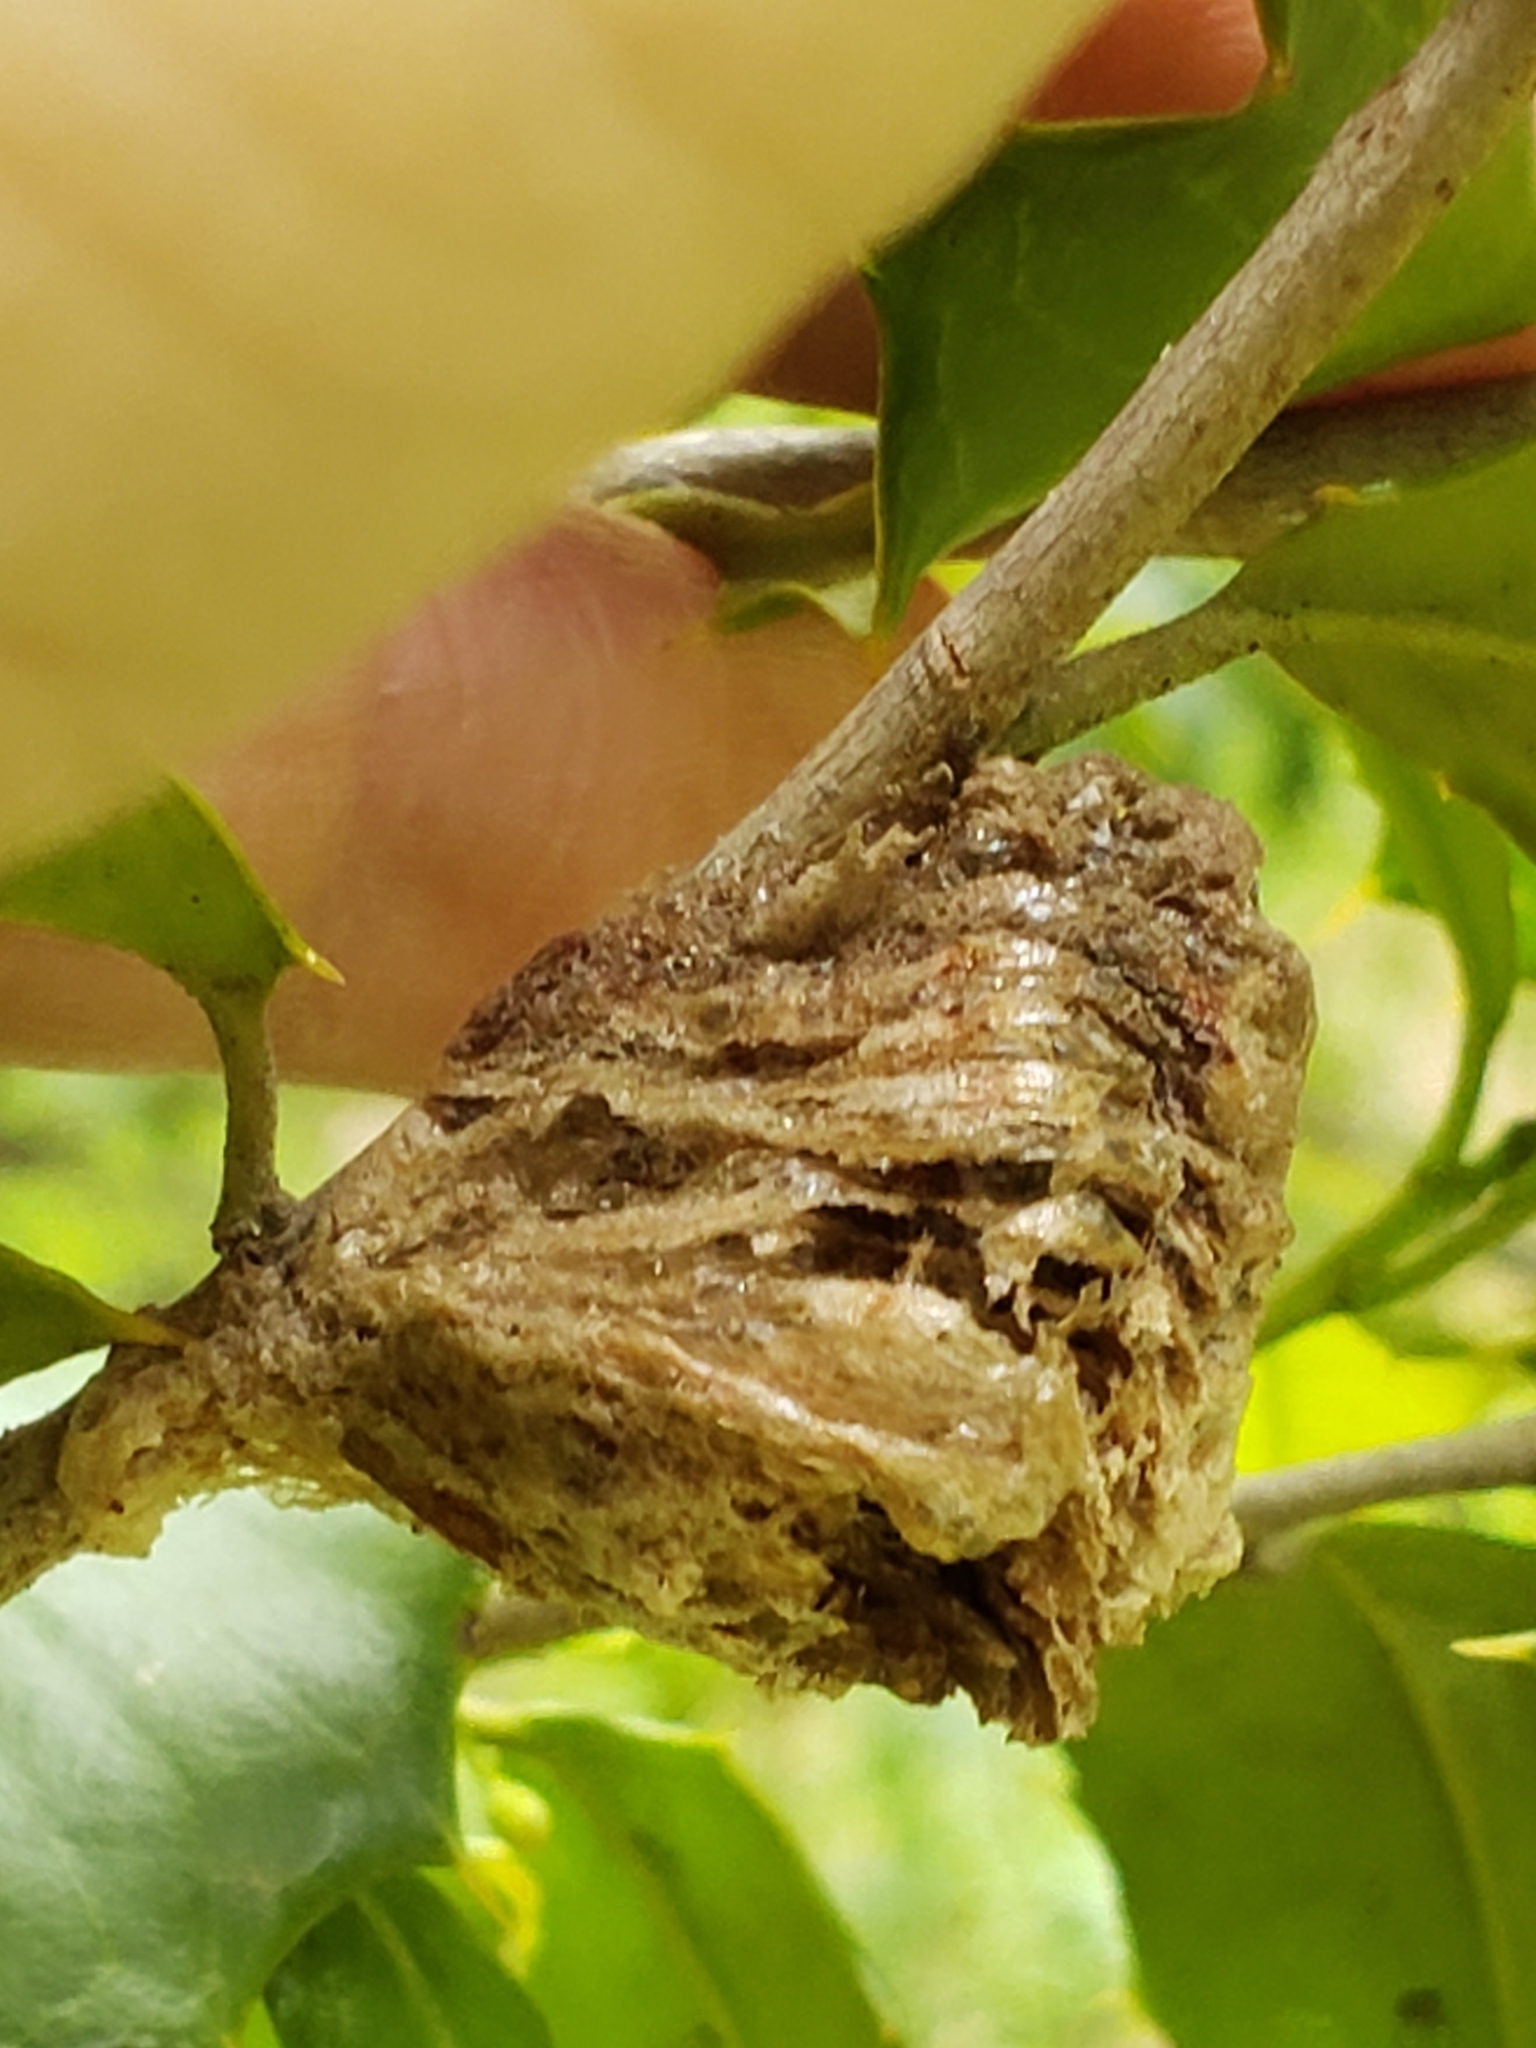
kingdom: Animalia
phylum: Arthropoda
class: Insecta
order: Mantodea
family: Mantidae
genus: Tenodera
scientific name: Tenodera sinensis
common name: Chinese mantis
